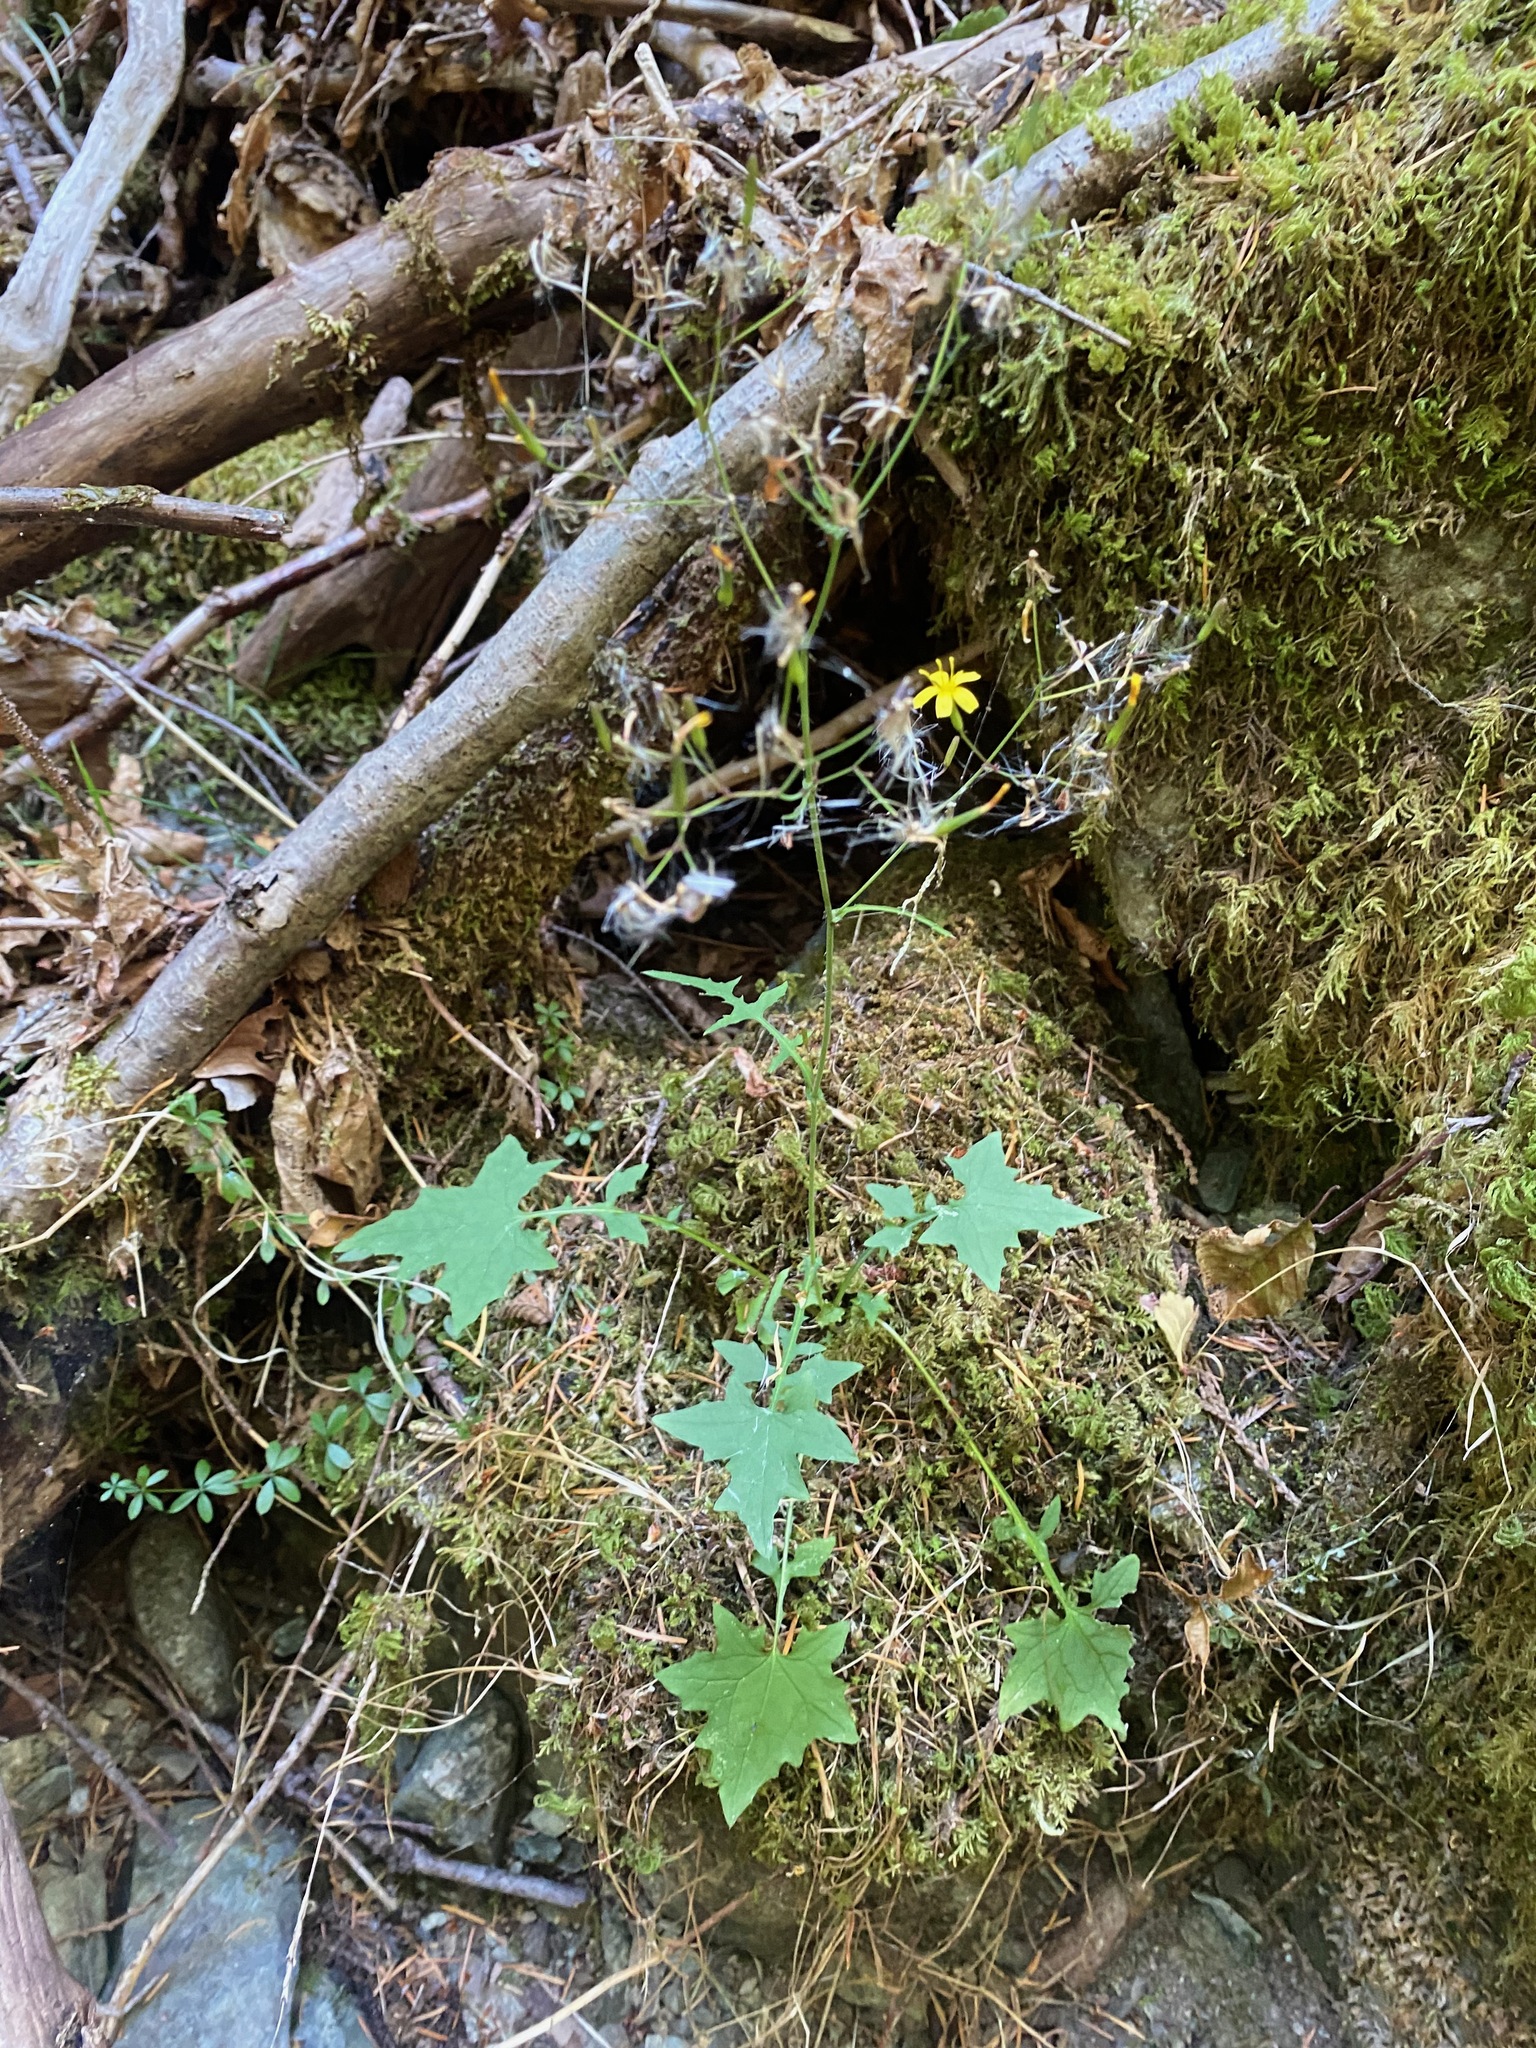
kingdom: Plantae
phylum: Tracheophyta
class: Magnoliopsida
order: Asterales
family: Asteraceae
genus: Mycelis
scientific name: Mycelis muralis
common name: Wall lettuce
